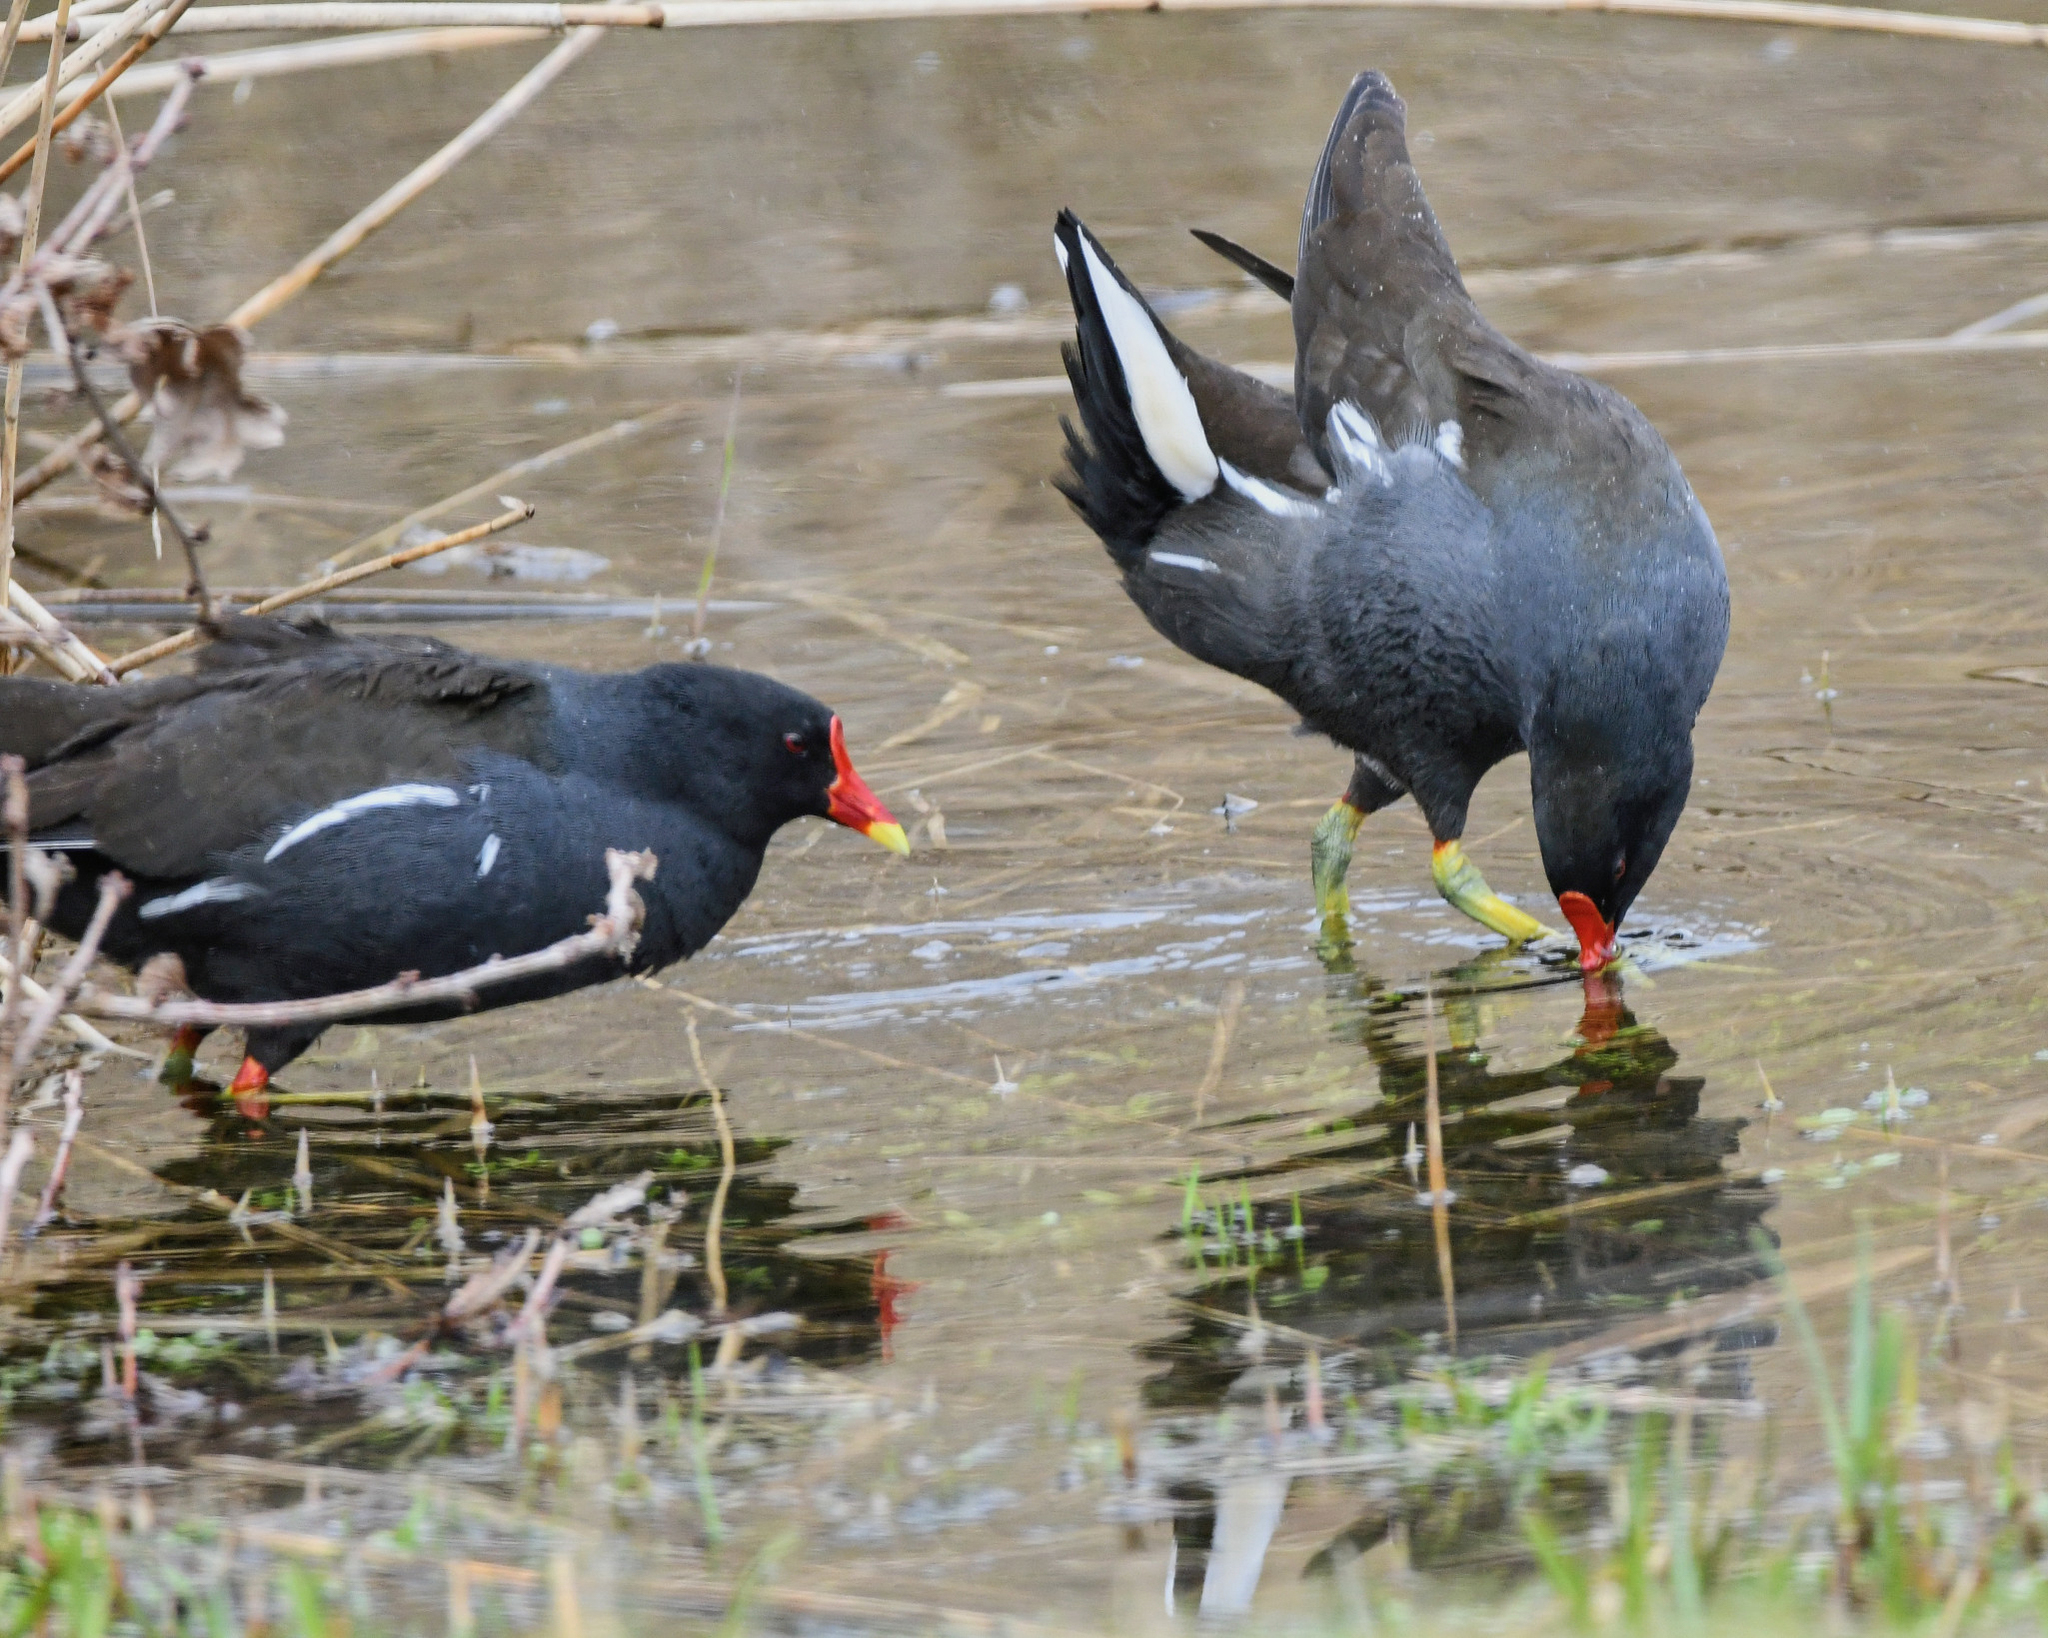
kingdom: Animalia
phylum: Chordata
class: Aves
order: Gruiformes
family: Rallidae
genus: Gallinula
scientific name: Gallinula chloropus
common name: Common moorhen
